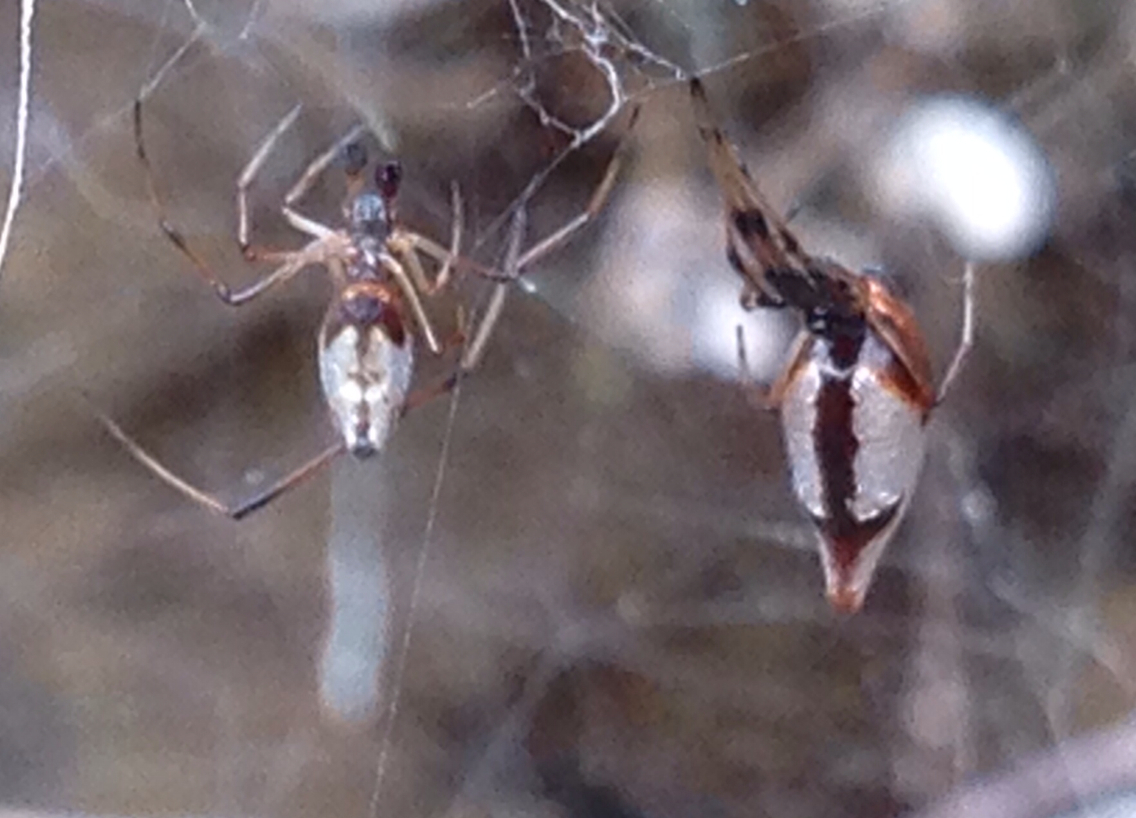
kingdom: Animalia
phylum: Arthropoda
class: Arachnida
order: Araneae
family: Theridiidae
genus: Argyrodes
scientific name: Argyrodes elevatus
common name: Cobweb spiders
